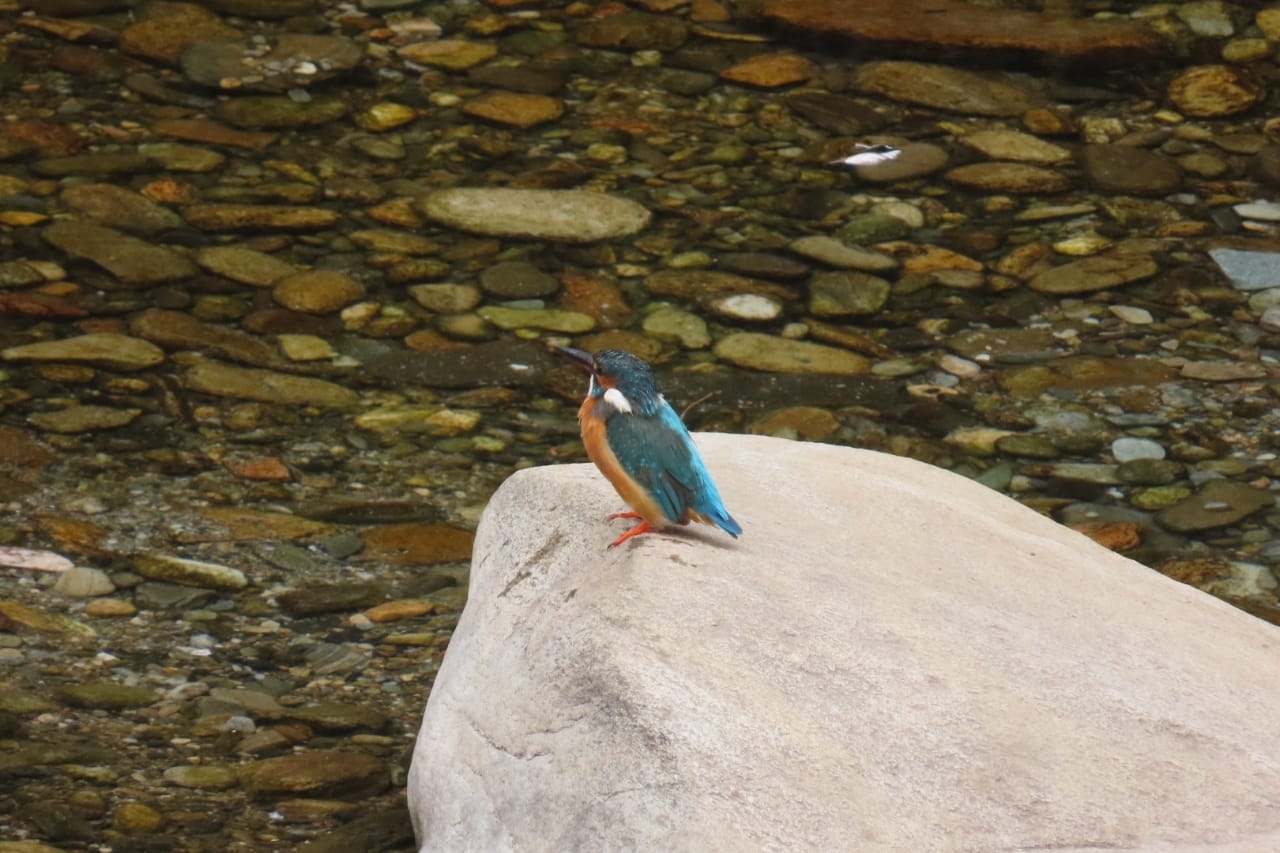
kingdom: Animalia
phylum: Chordata
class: Aves
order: Coraciiformes
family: Alcedinidae
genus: Alcedo
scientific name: Alcedo atthis
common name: Common kingfisher
